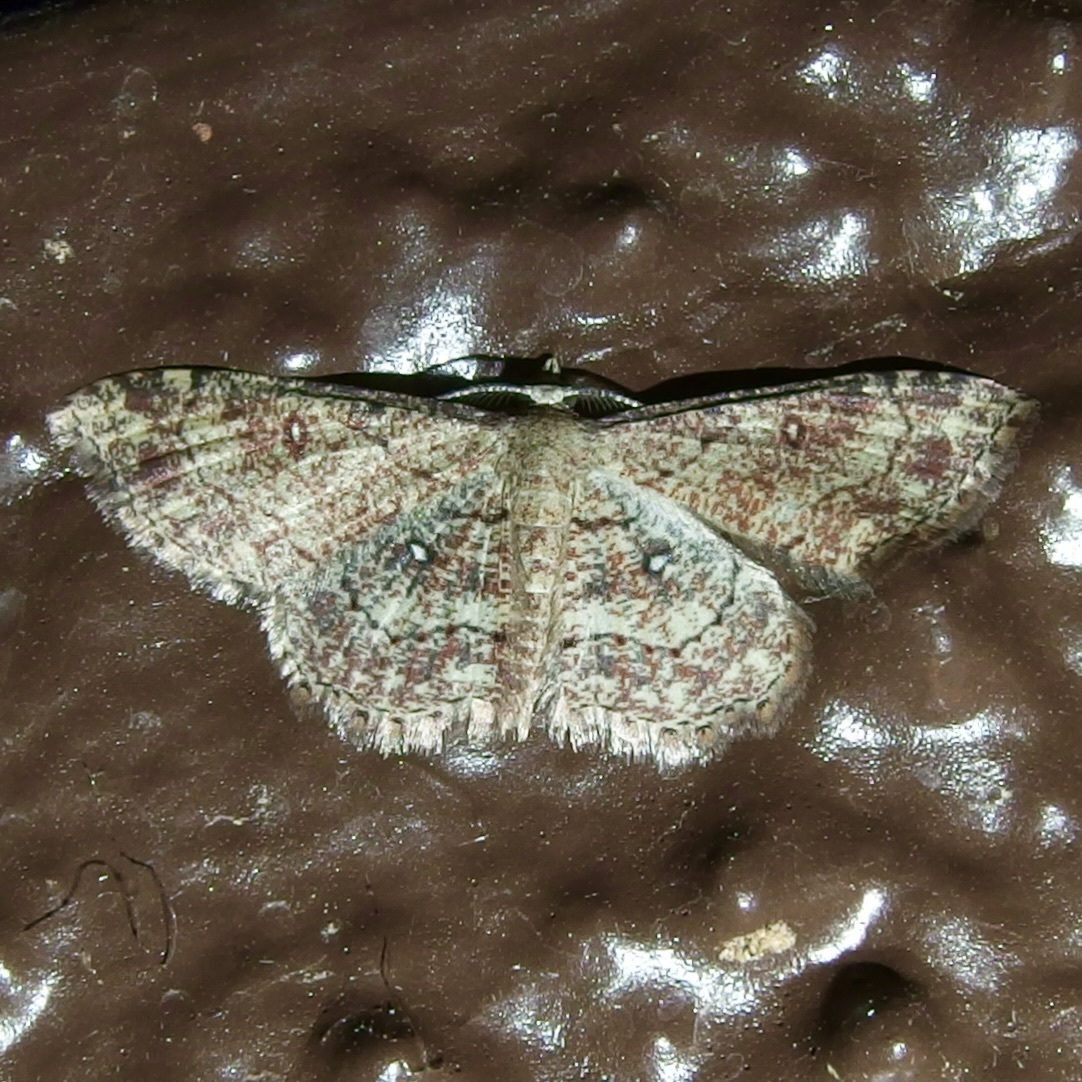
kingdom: Animalia
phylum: Arthropoda
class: Insecta
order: Lepidoptera
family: Geometridae
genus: Cyclophora
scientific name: Cyclophora nanaria
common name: Cankerworm
